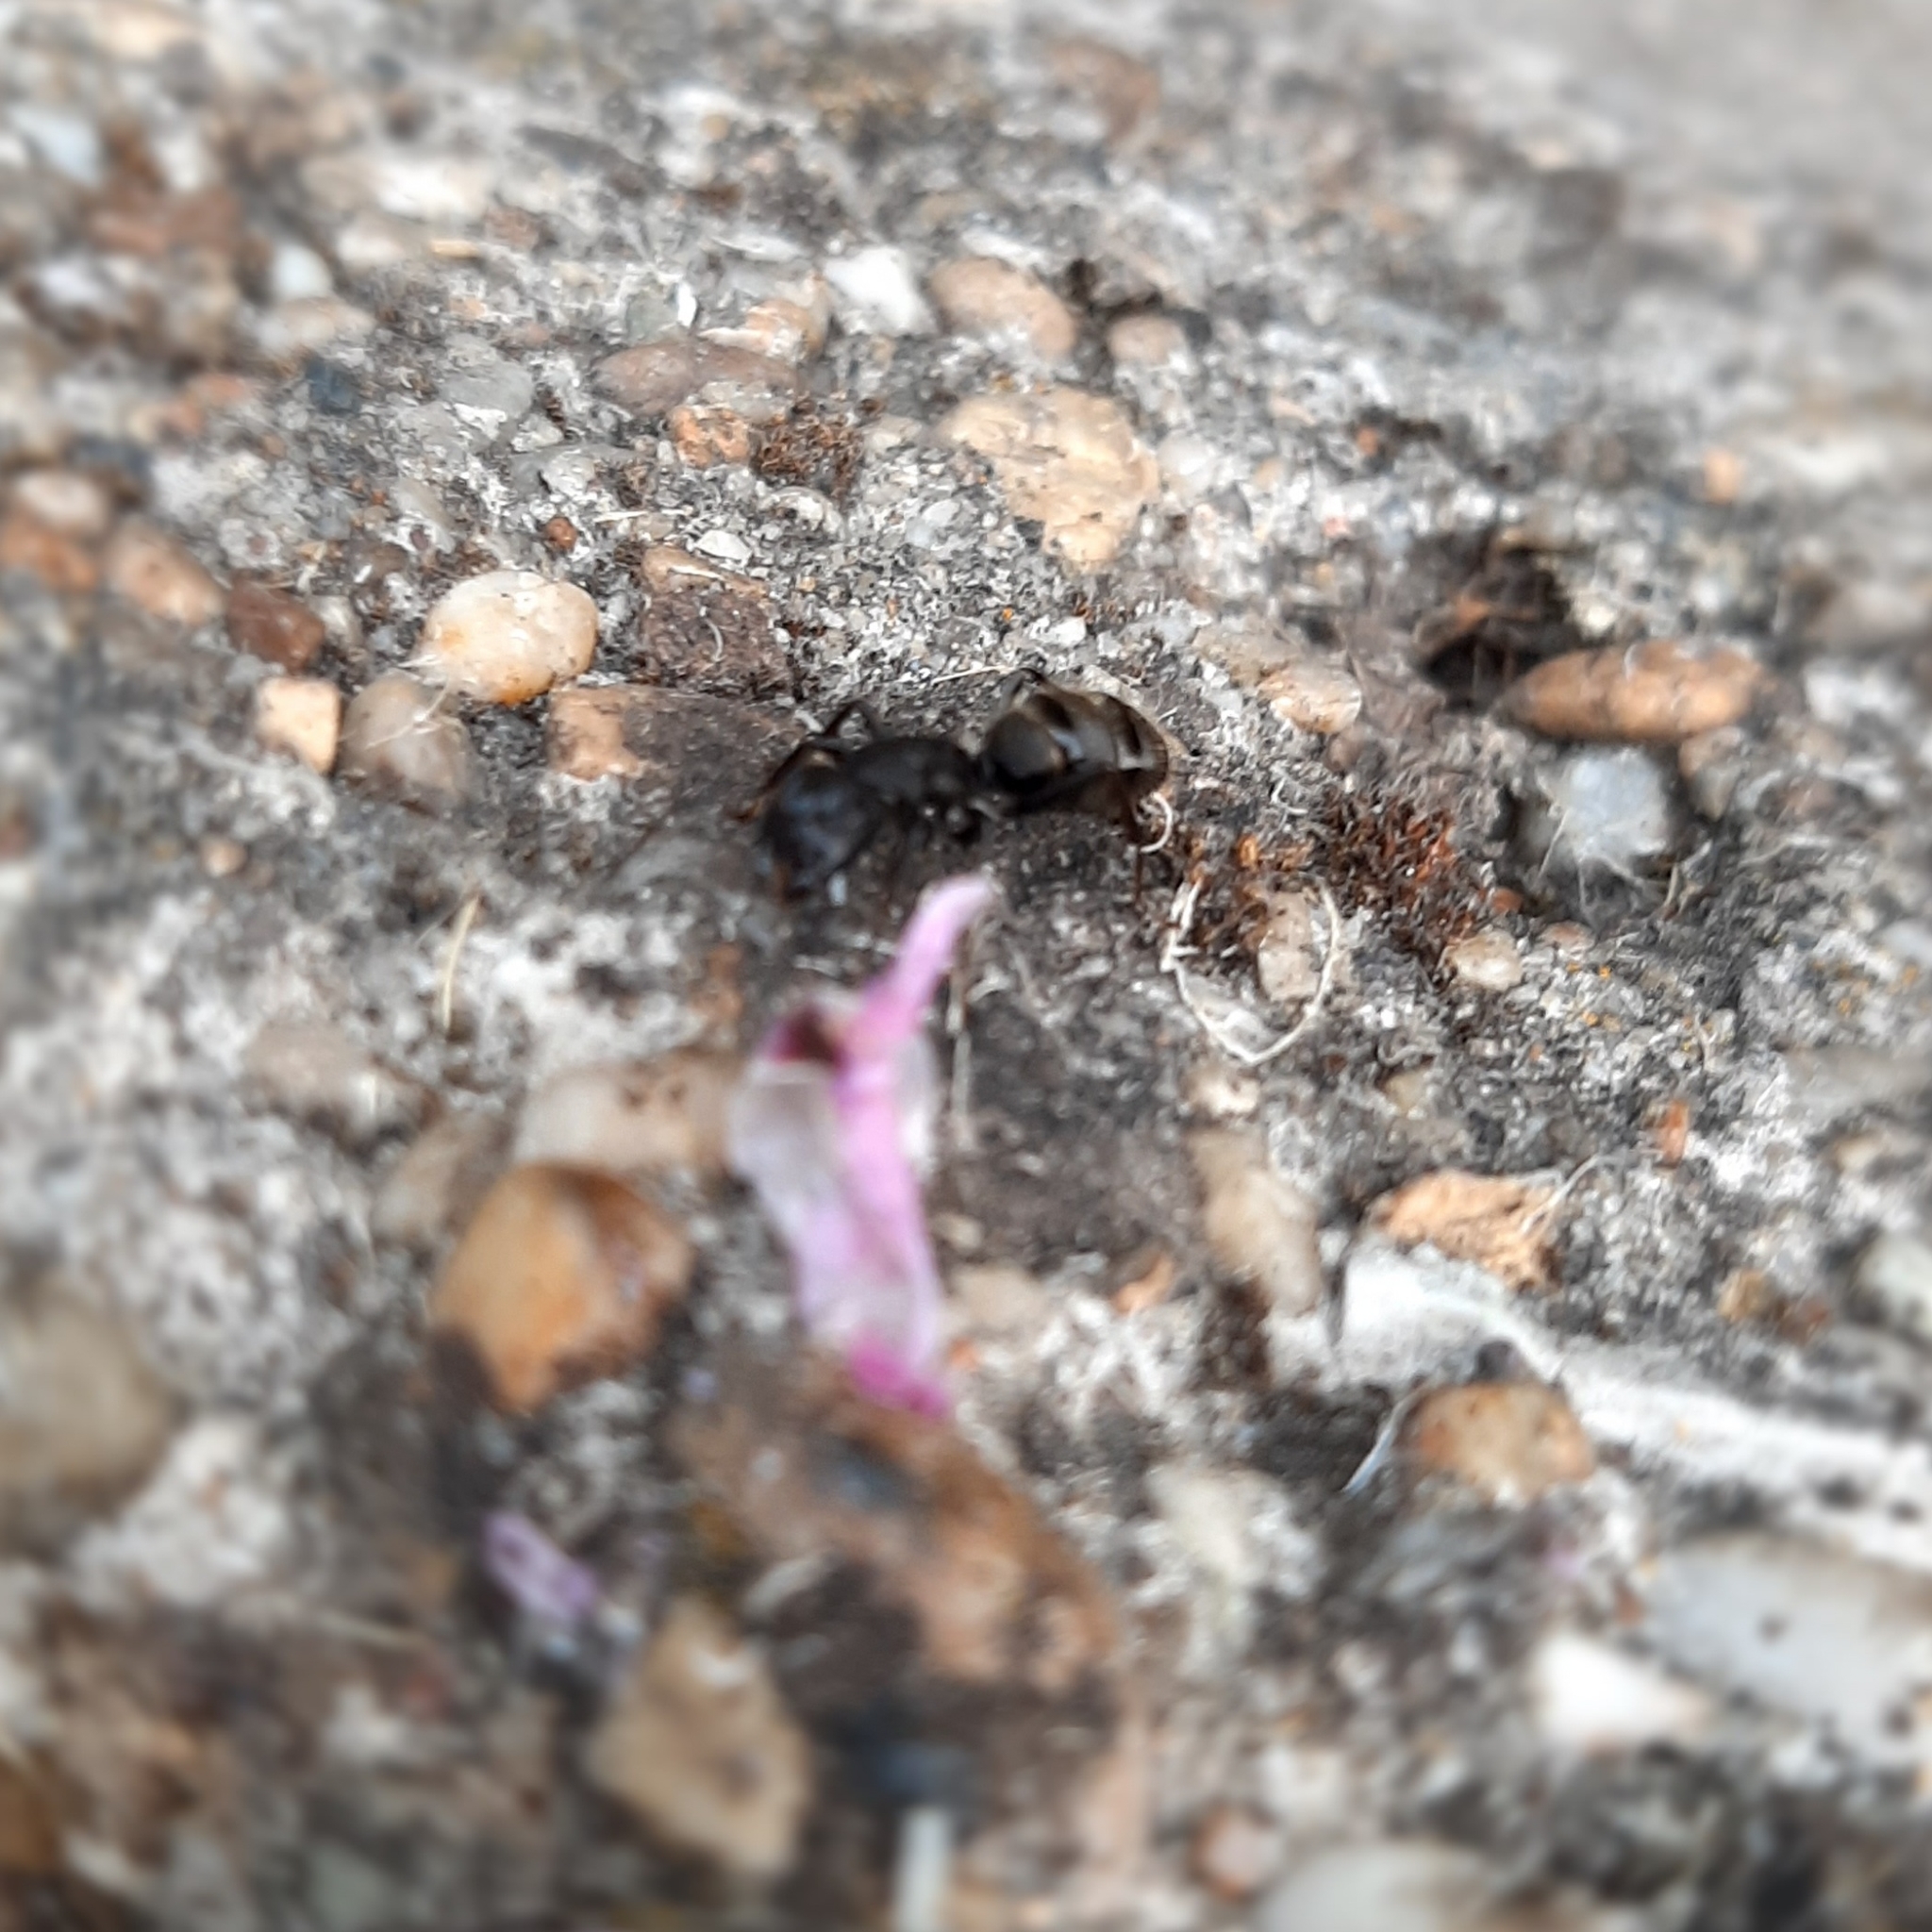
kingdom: Animalia
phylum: Arthropoda
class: Insecta
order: Hymenoptera
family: Formicidae
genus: Camponotus
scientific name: Camponotus vagus
